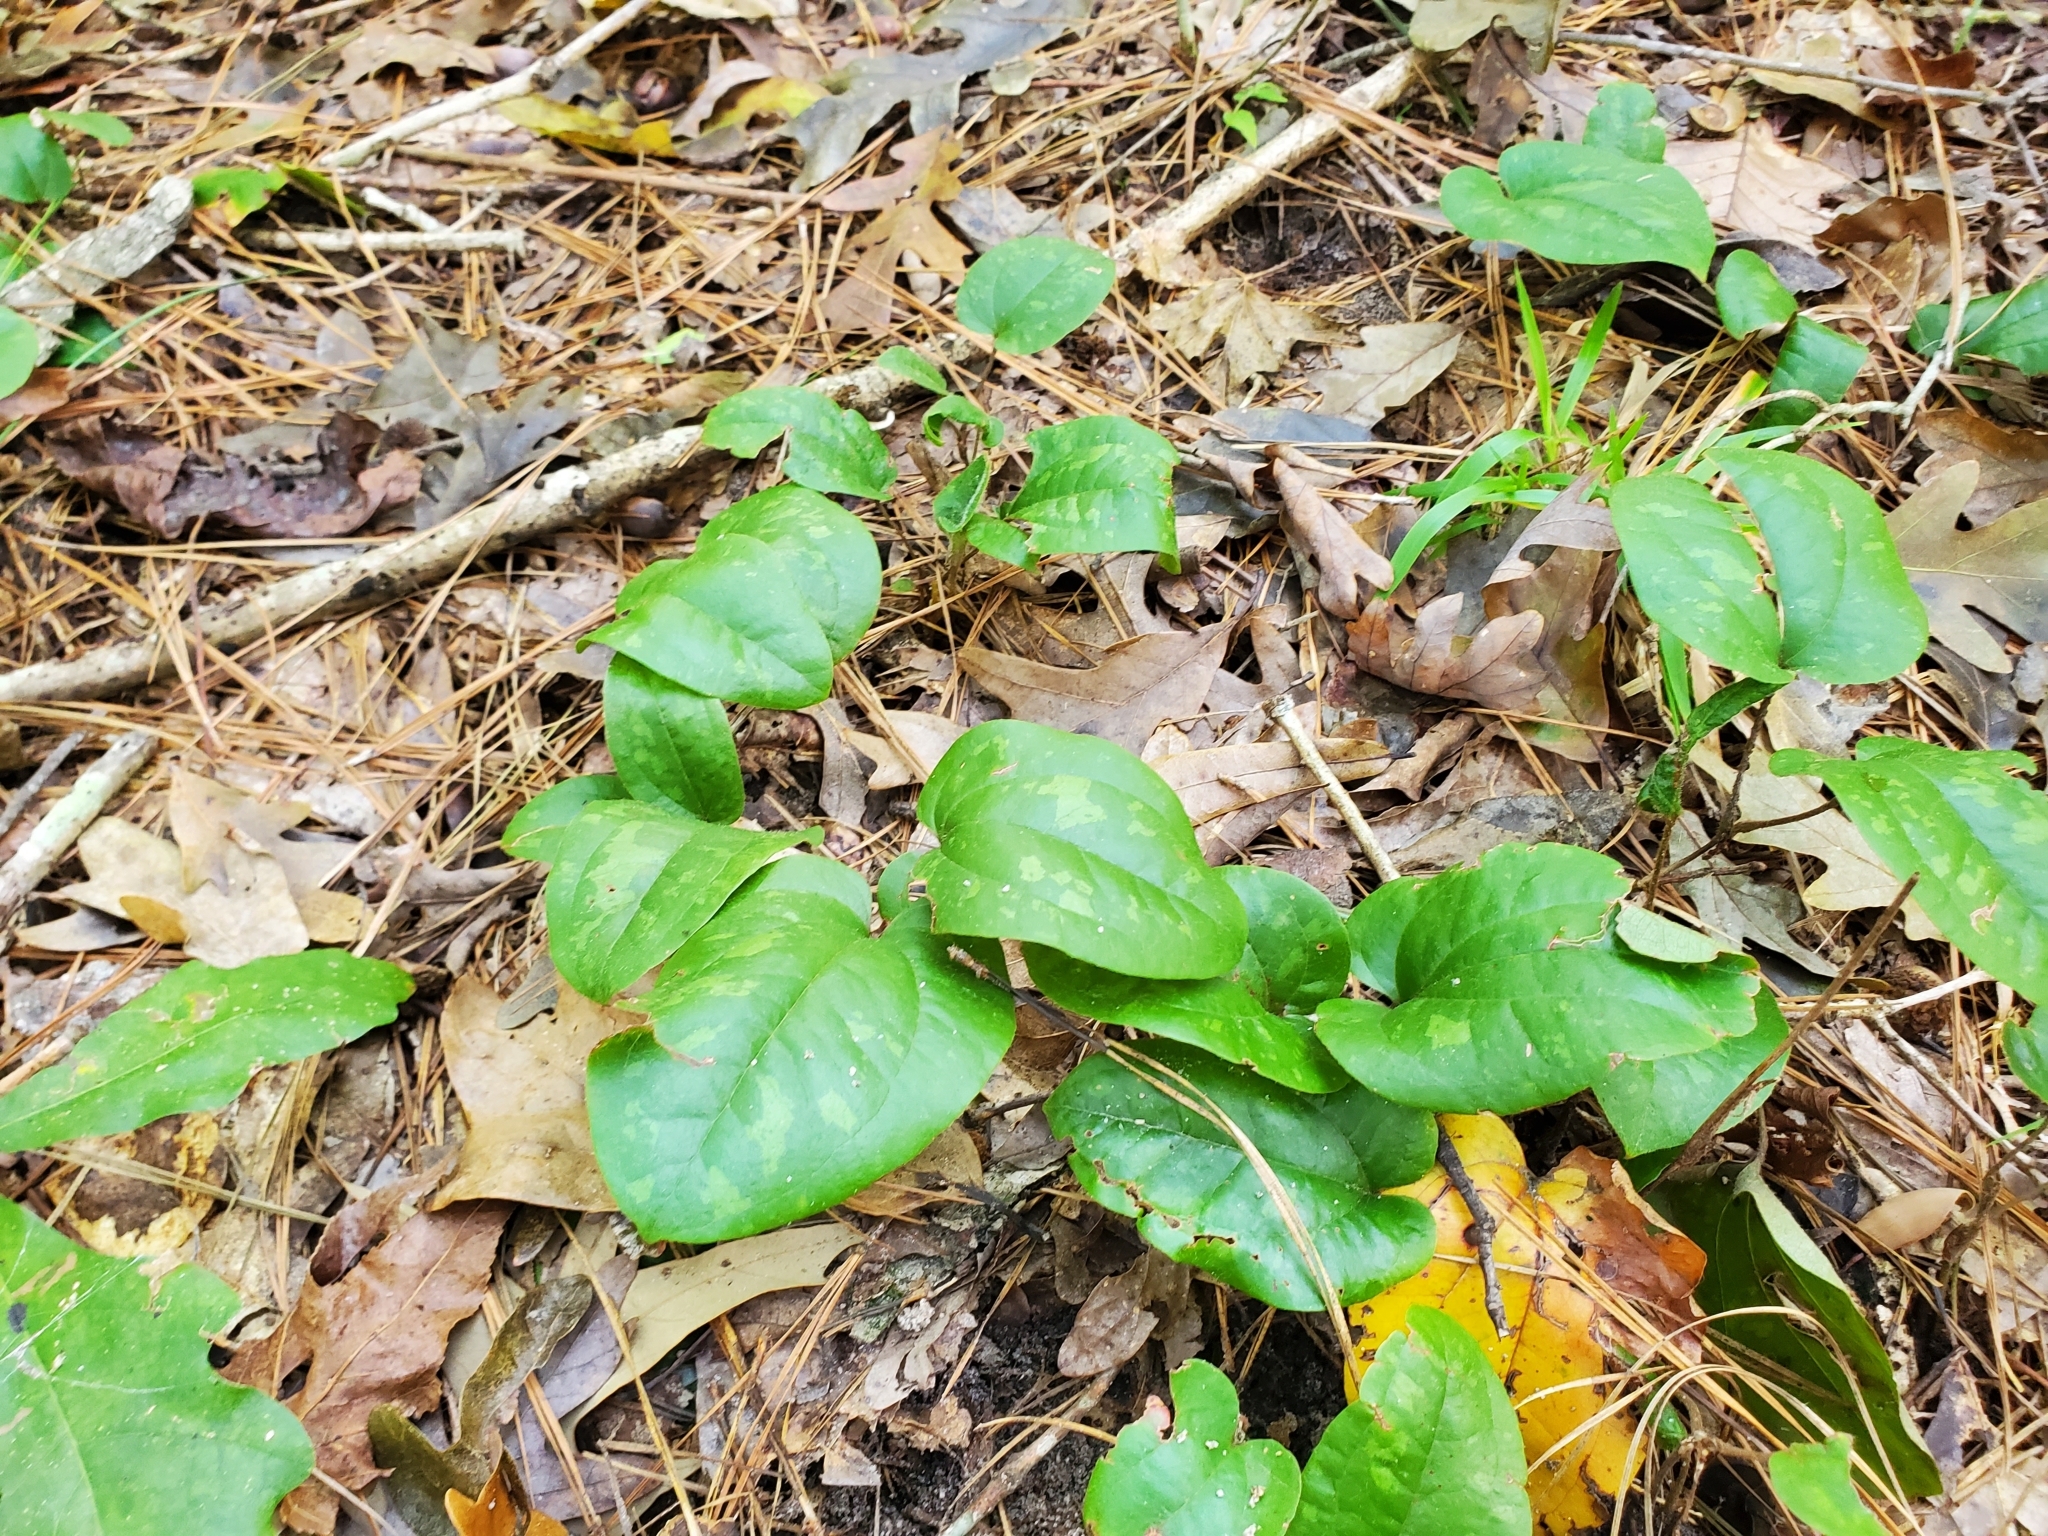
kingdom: Plantae
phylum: Tracheophyta
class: Liliopsida
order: Liliales
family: Smilacaceae
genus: Smilax
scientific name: Smilax pumila
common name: Sarsaparilla-vine
